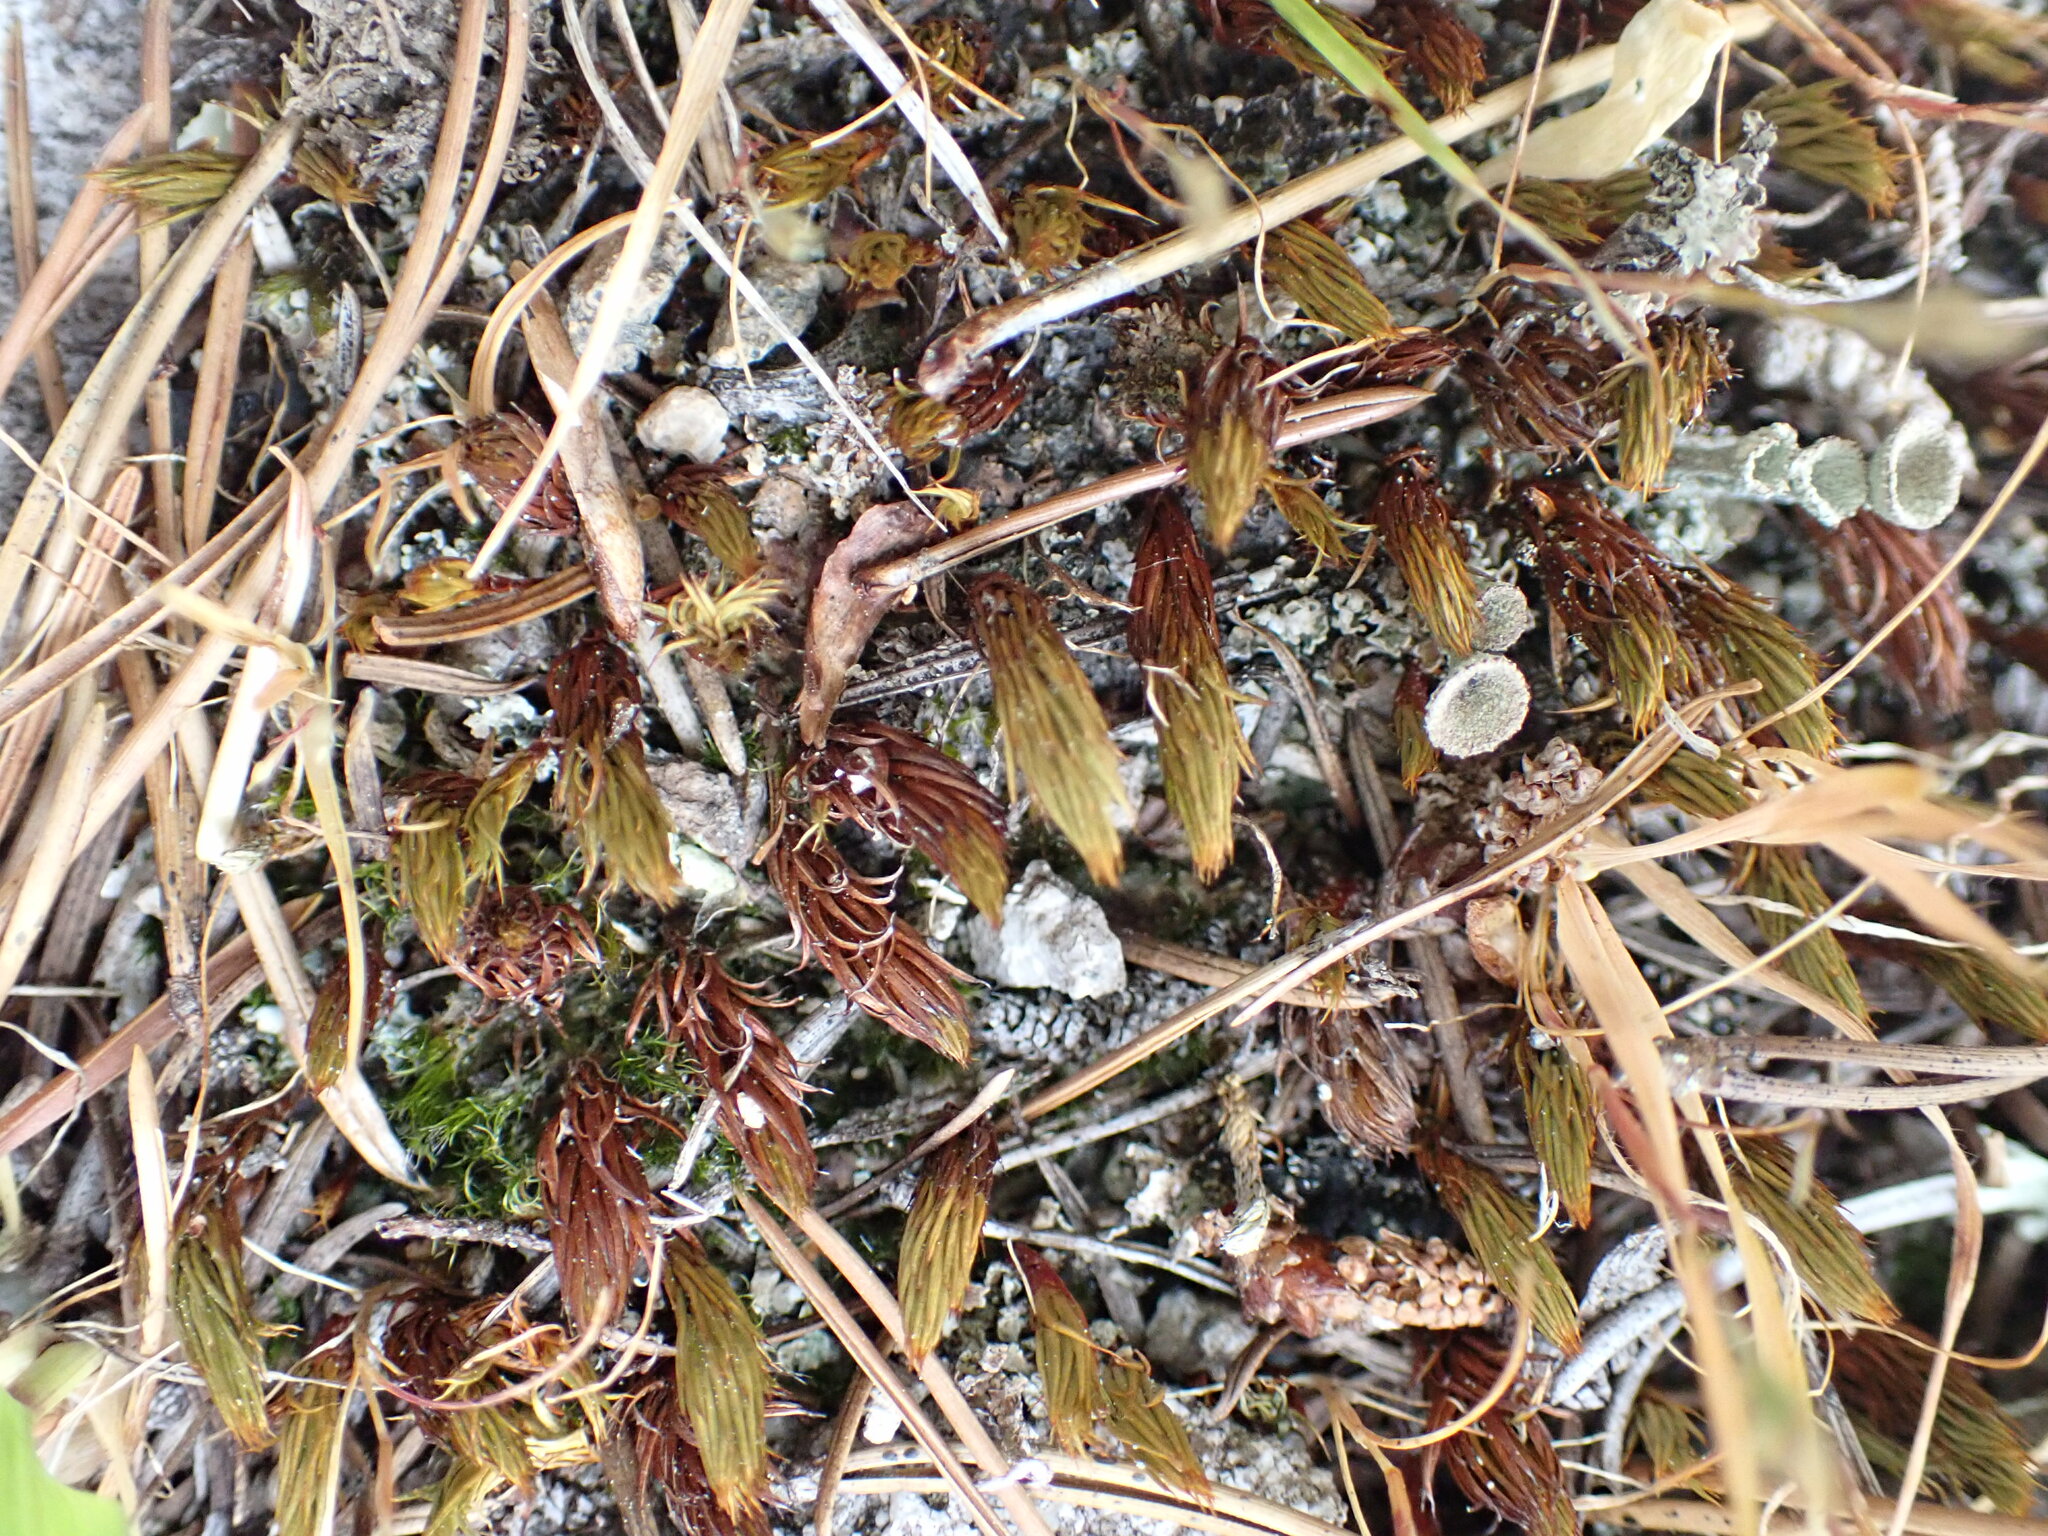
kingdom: Plantae
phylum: Bryophyta
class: Polytrichopsida
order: Polytrichales
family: Polytrichaceae
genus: Polytrichum
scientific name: Polytrichum juniperinum
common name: Juniper haircap moss
